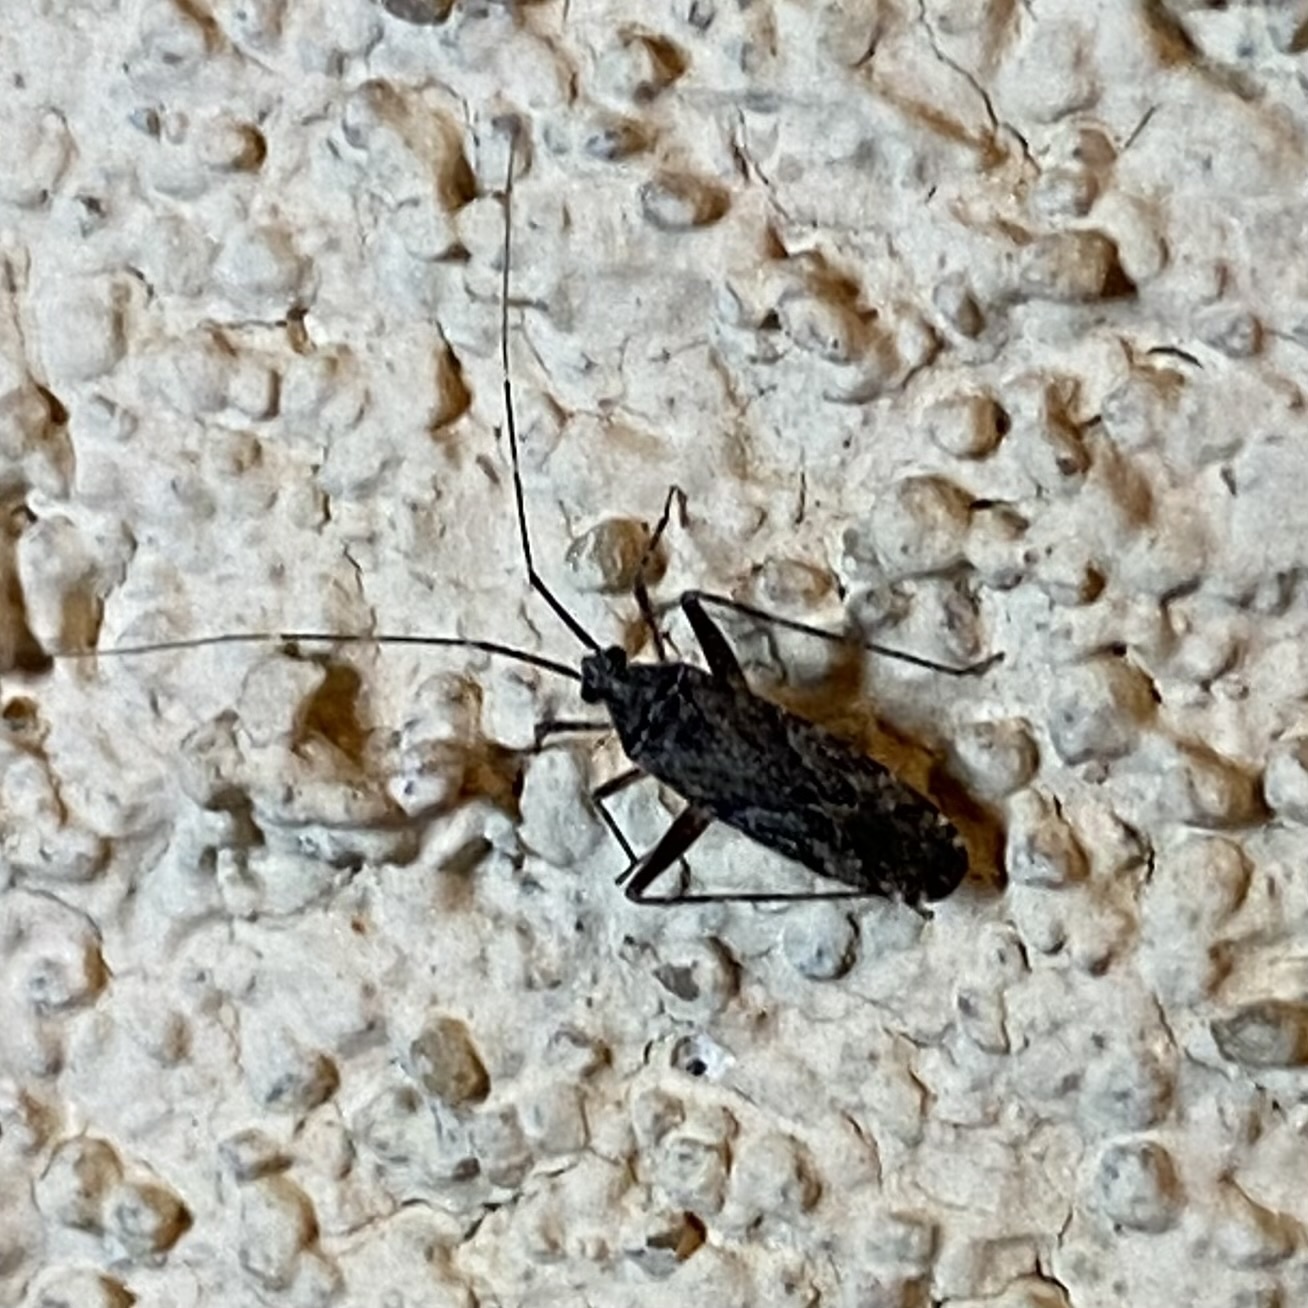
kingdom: Animalia
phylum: Arthropoda
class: Insecta
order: Hemiptera
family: Miridae
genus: Phytocoris
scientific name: Phytocoris
